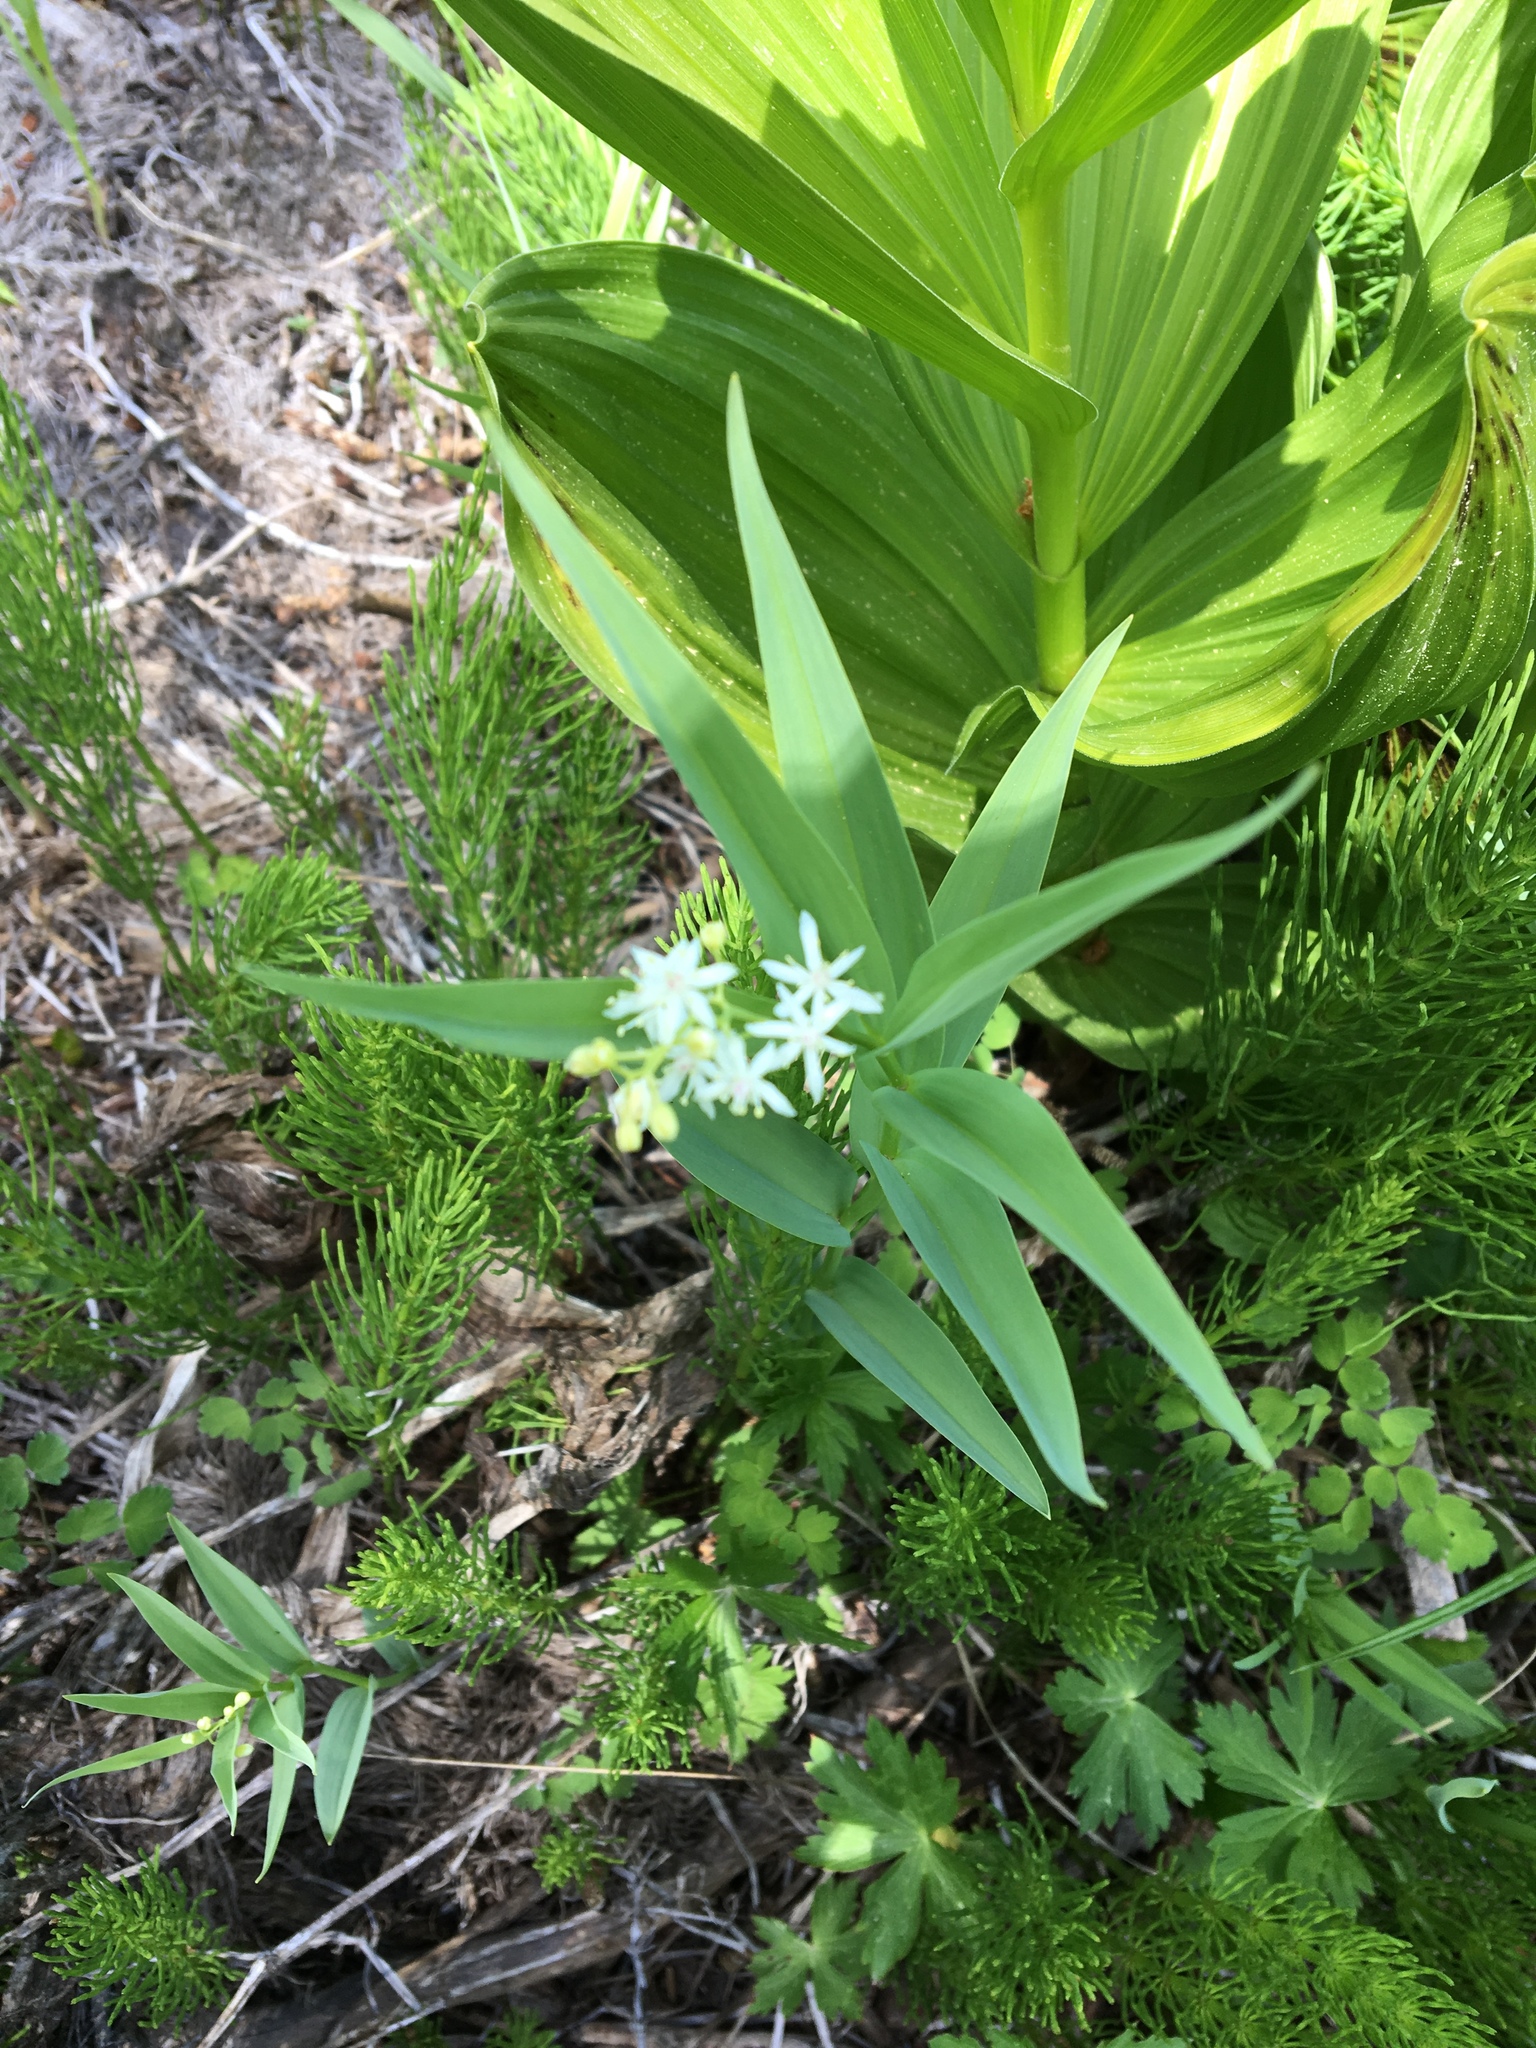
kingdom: Plantae
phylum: Tracheophyta
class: Liliopsida
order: Asparagales
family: Asparagaceae
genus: Maianthemum
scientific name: Maianthemum stellatum
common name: Little false solomon's seal
